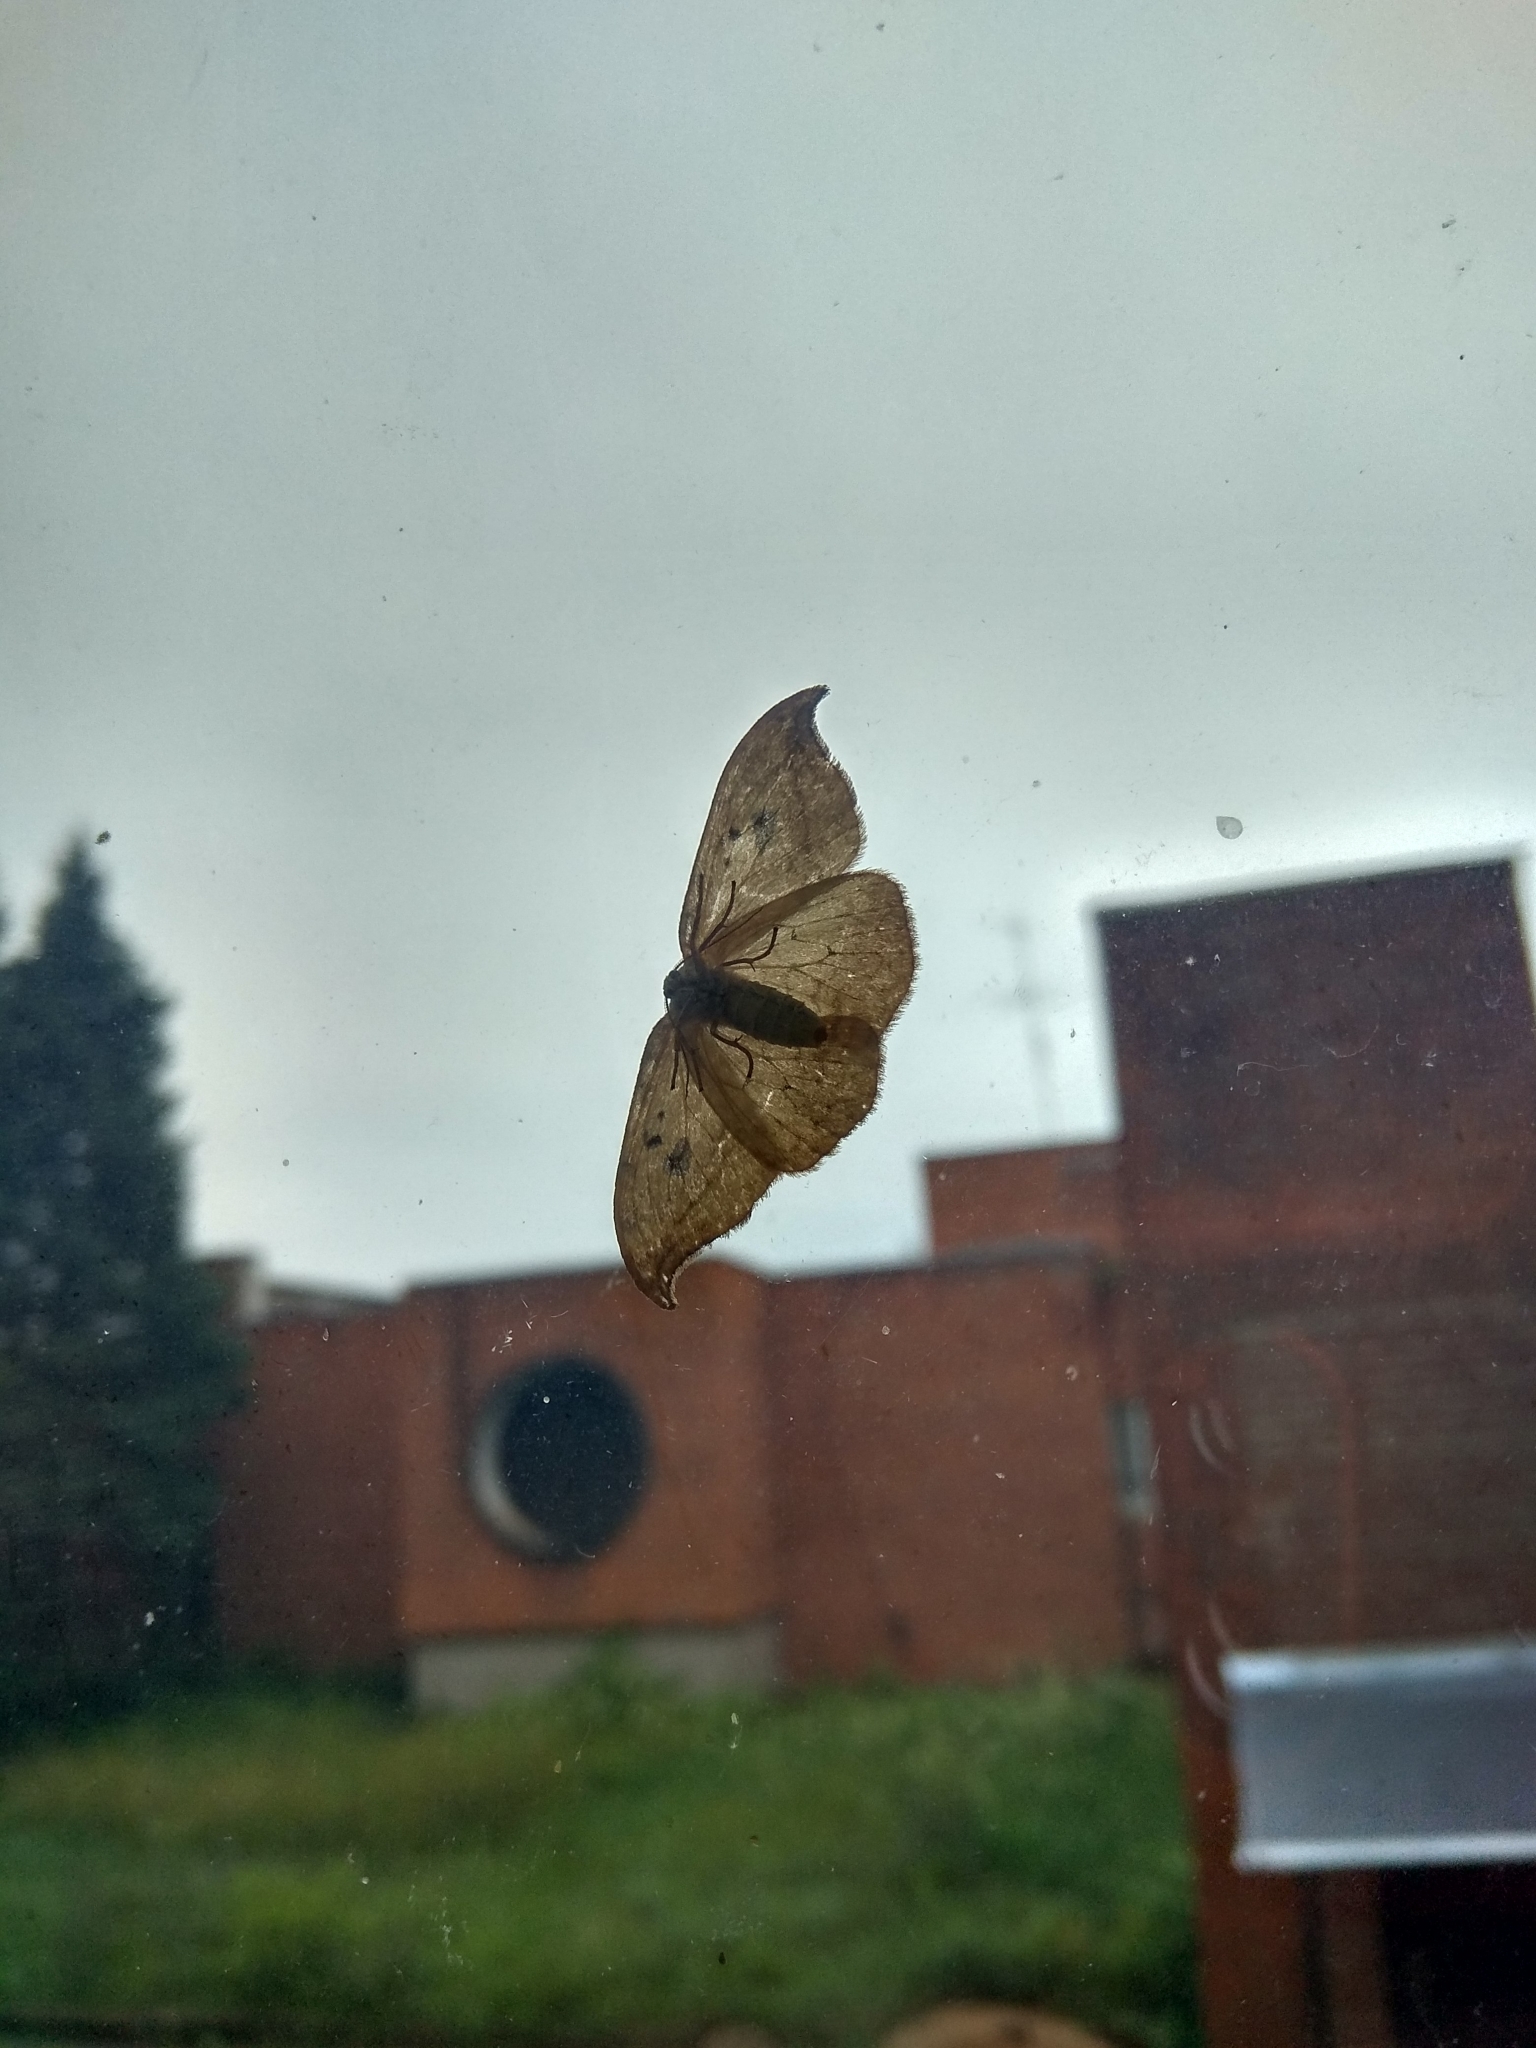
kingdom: Animalia
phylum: Arthropoda
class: Insecta
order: Lepidoptera
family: Drepanidae
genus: Drepana
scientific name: Drepana falcataria
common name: Pebble hook-tip
